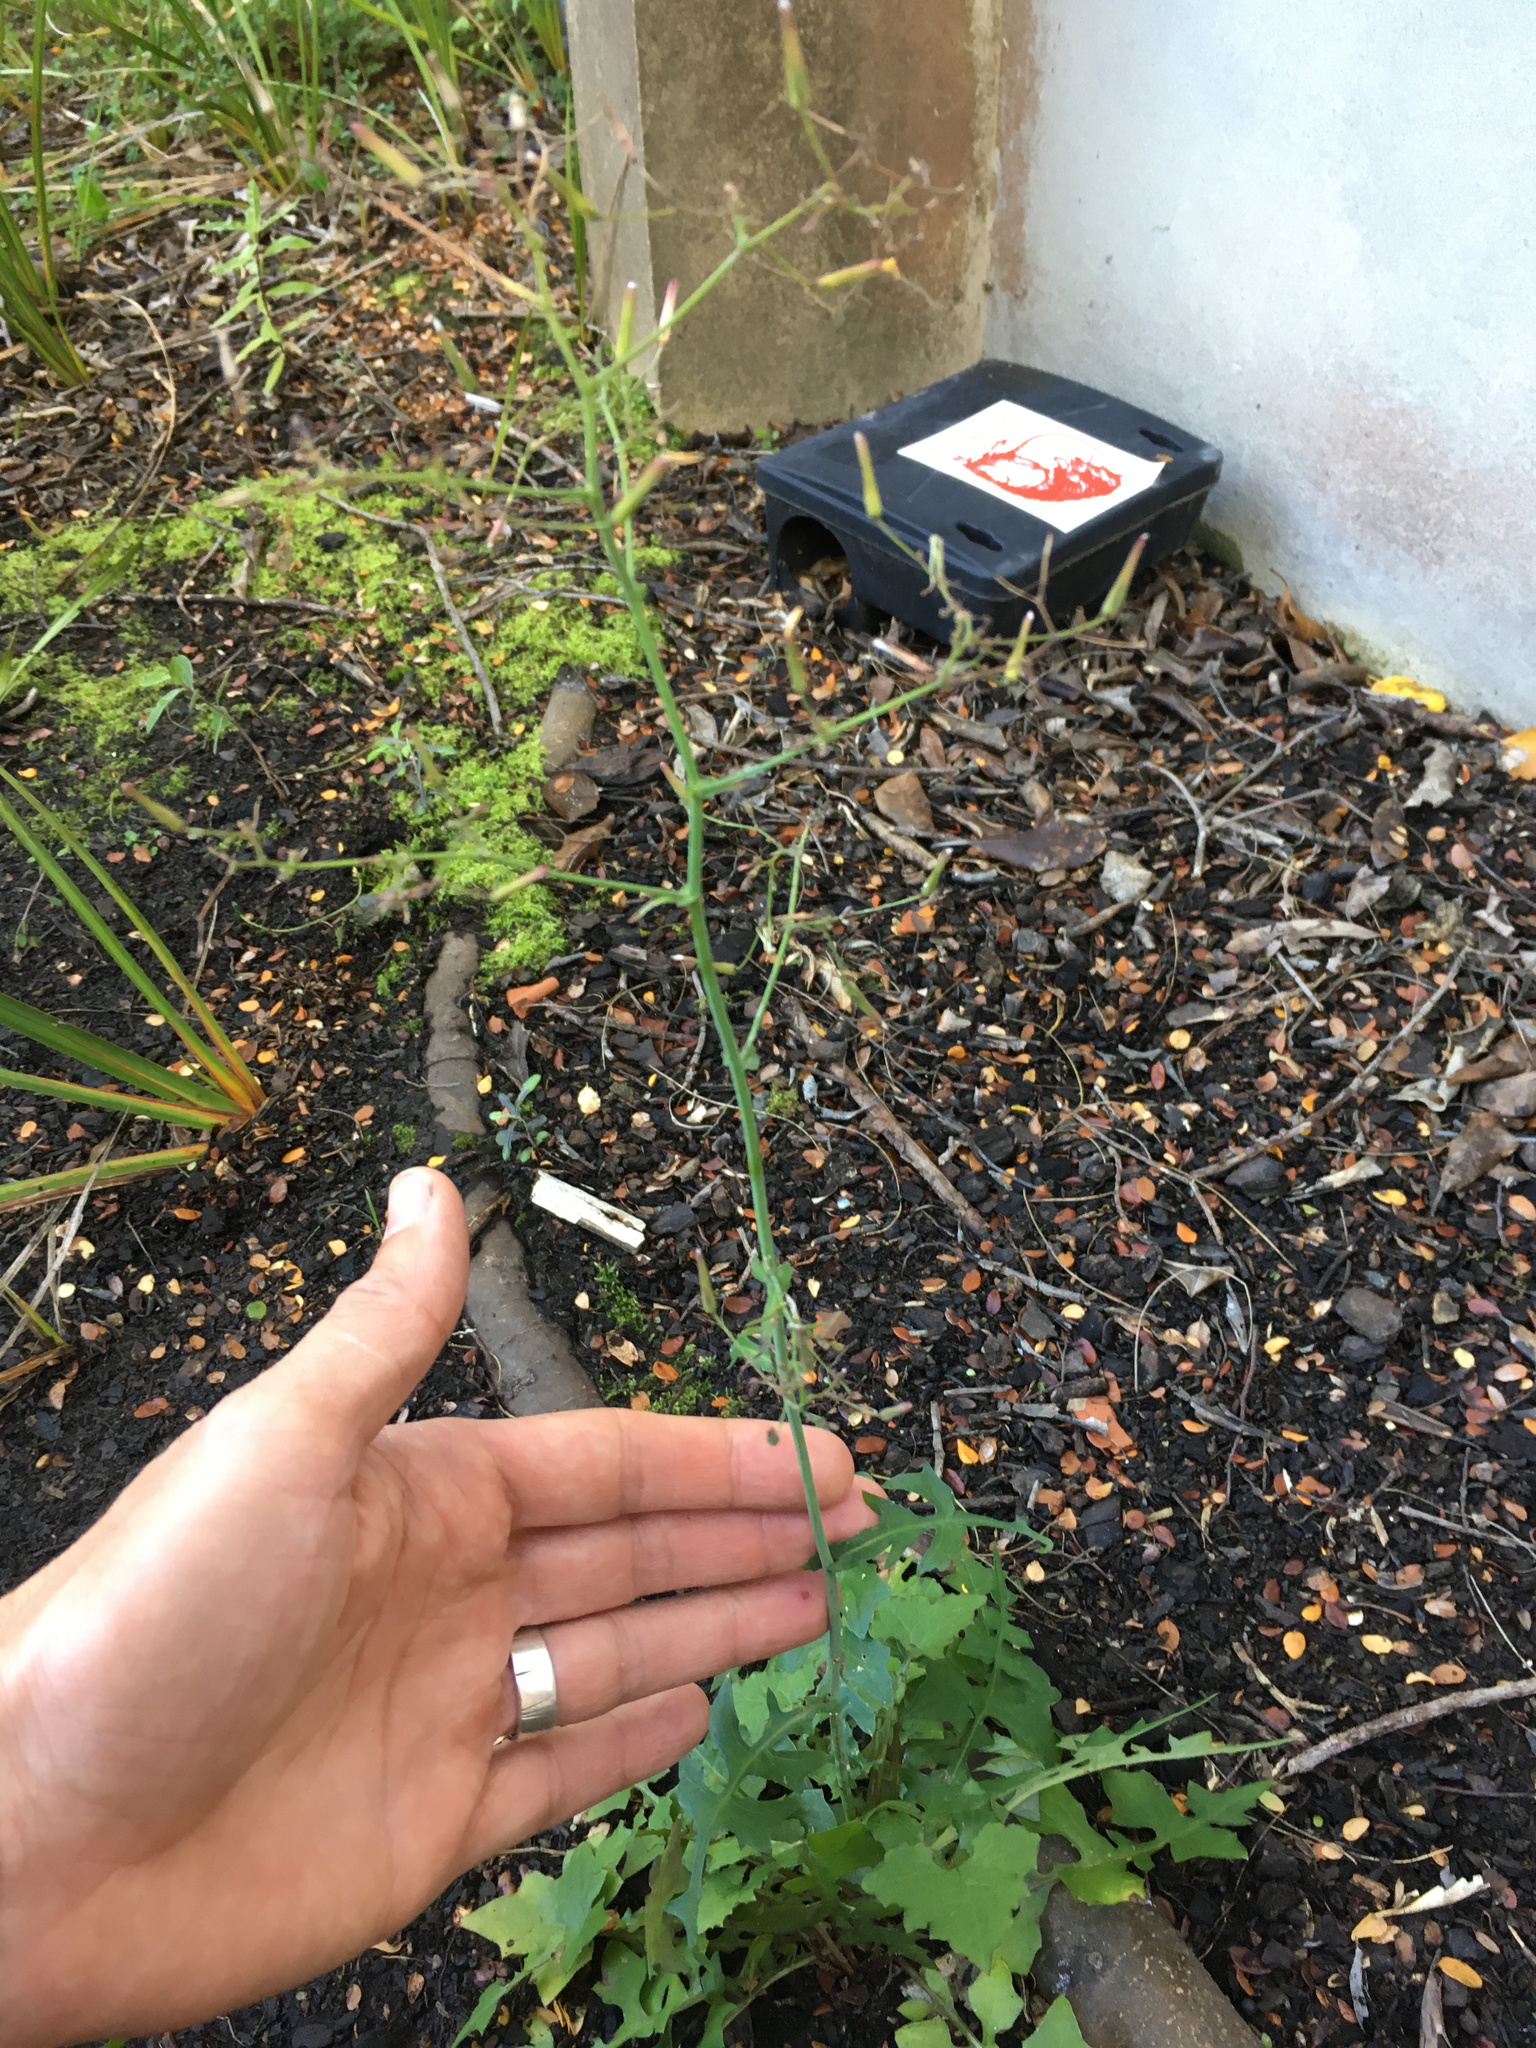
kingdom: Plantae
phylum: Tracheophyta
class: Magnoliopsida
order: Asterales
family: Asteraceae
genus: Mycelis
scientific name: Mycelis muralis
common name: Wall lettuce
